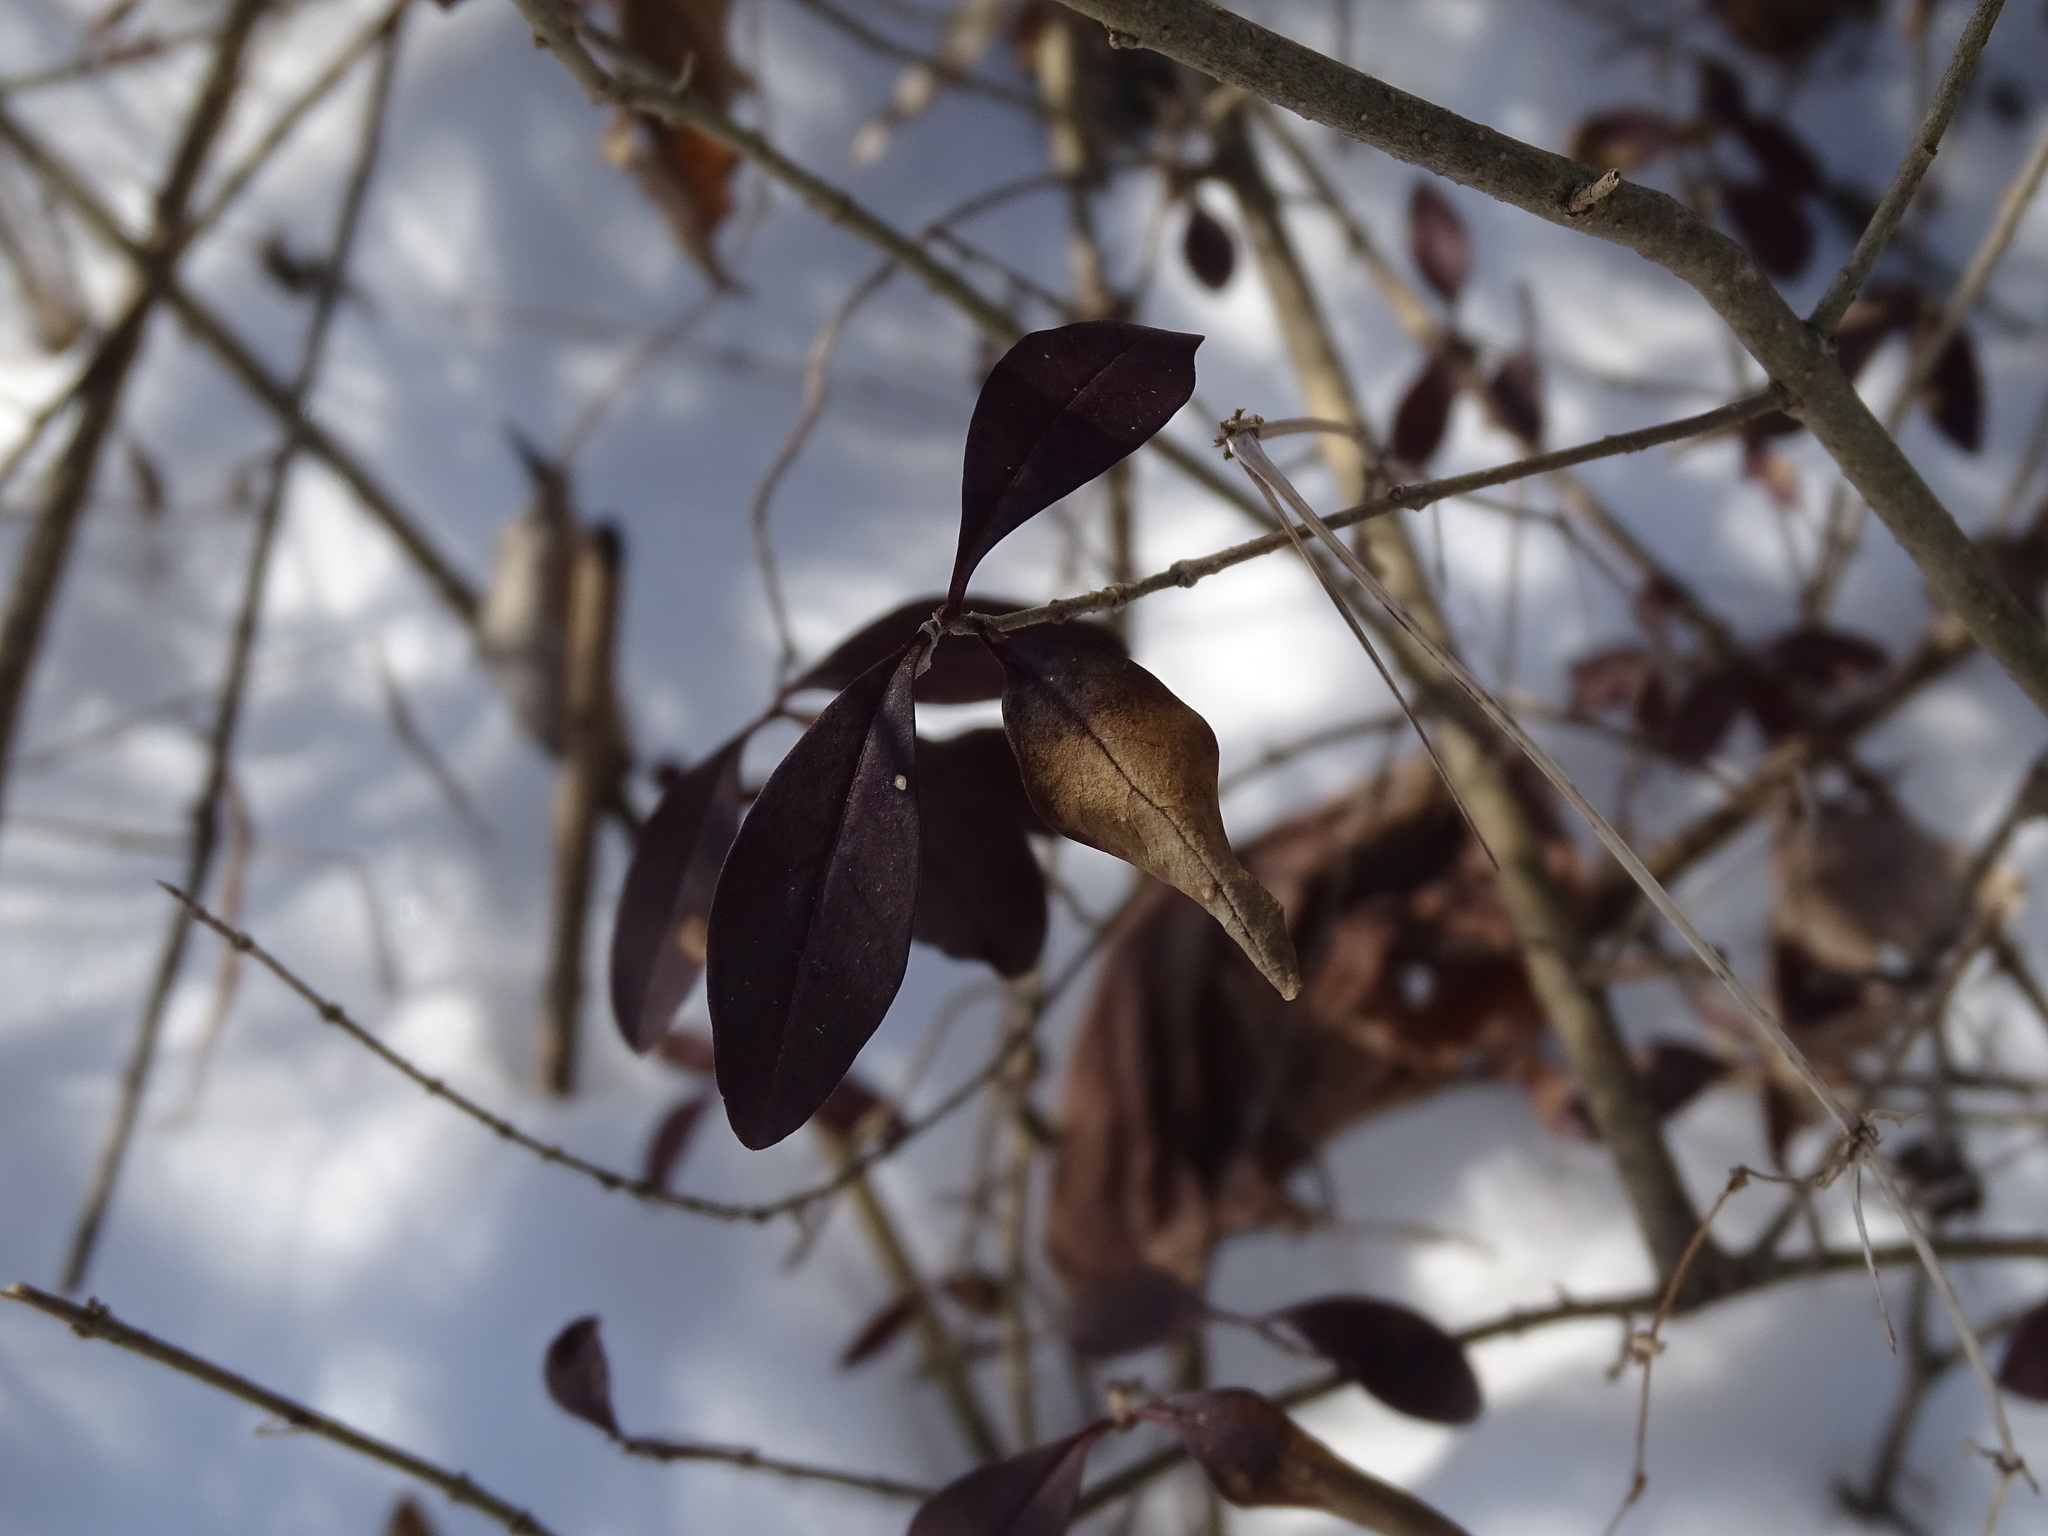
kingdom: Plantae
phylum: Tracheophyta
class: Magnoliopsida
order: Lamiales
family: Oleaceae
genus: Ligustrum
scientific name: Ligustrum vulgare
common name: Wild privet
